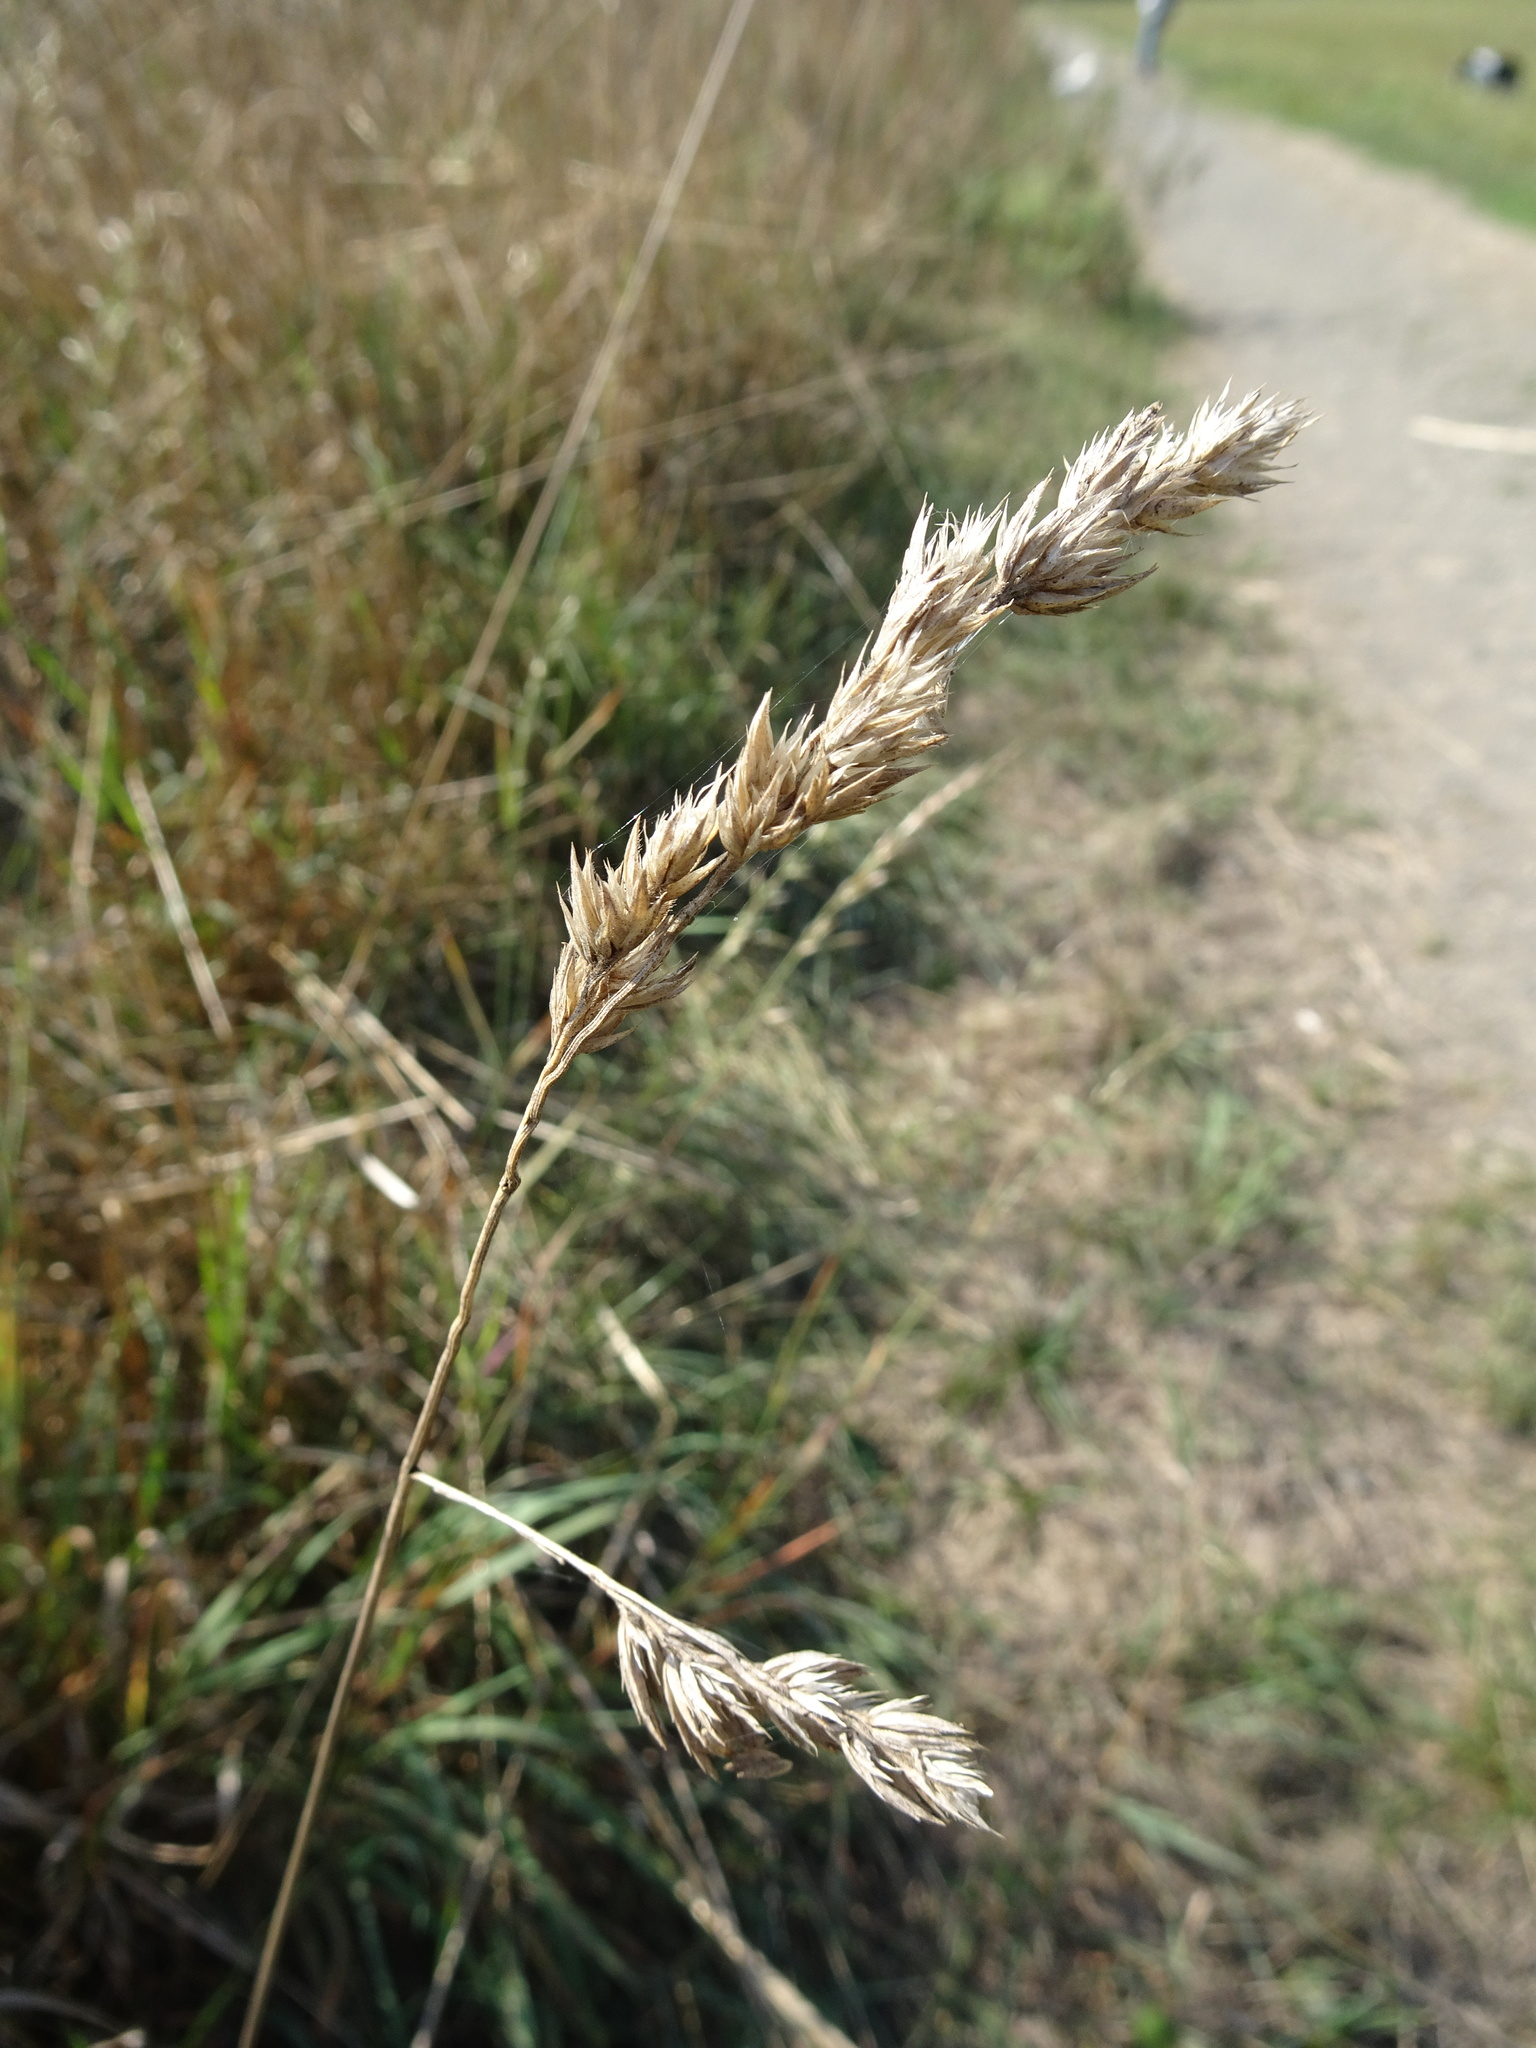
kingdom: Plantae
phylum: Tracheophyta
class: Liliopsida
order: Poales
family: Poaceae
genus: Dactylis
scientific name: Dactylis glomerata
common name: Orchardgrass
